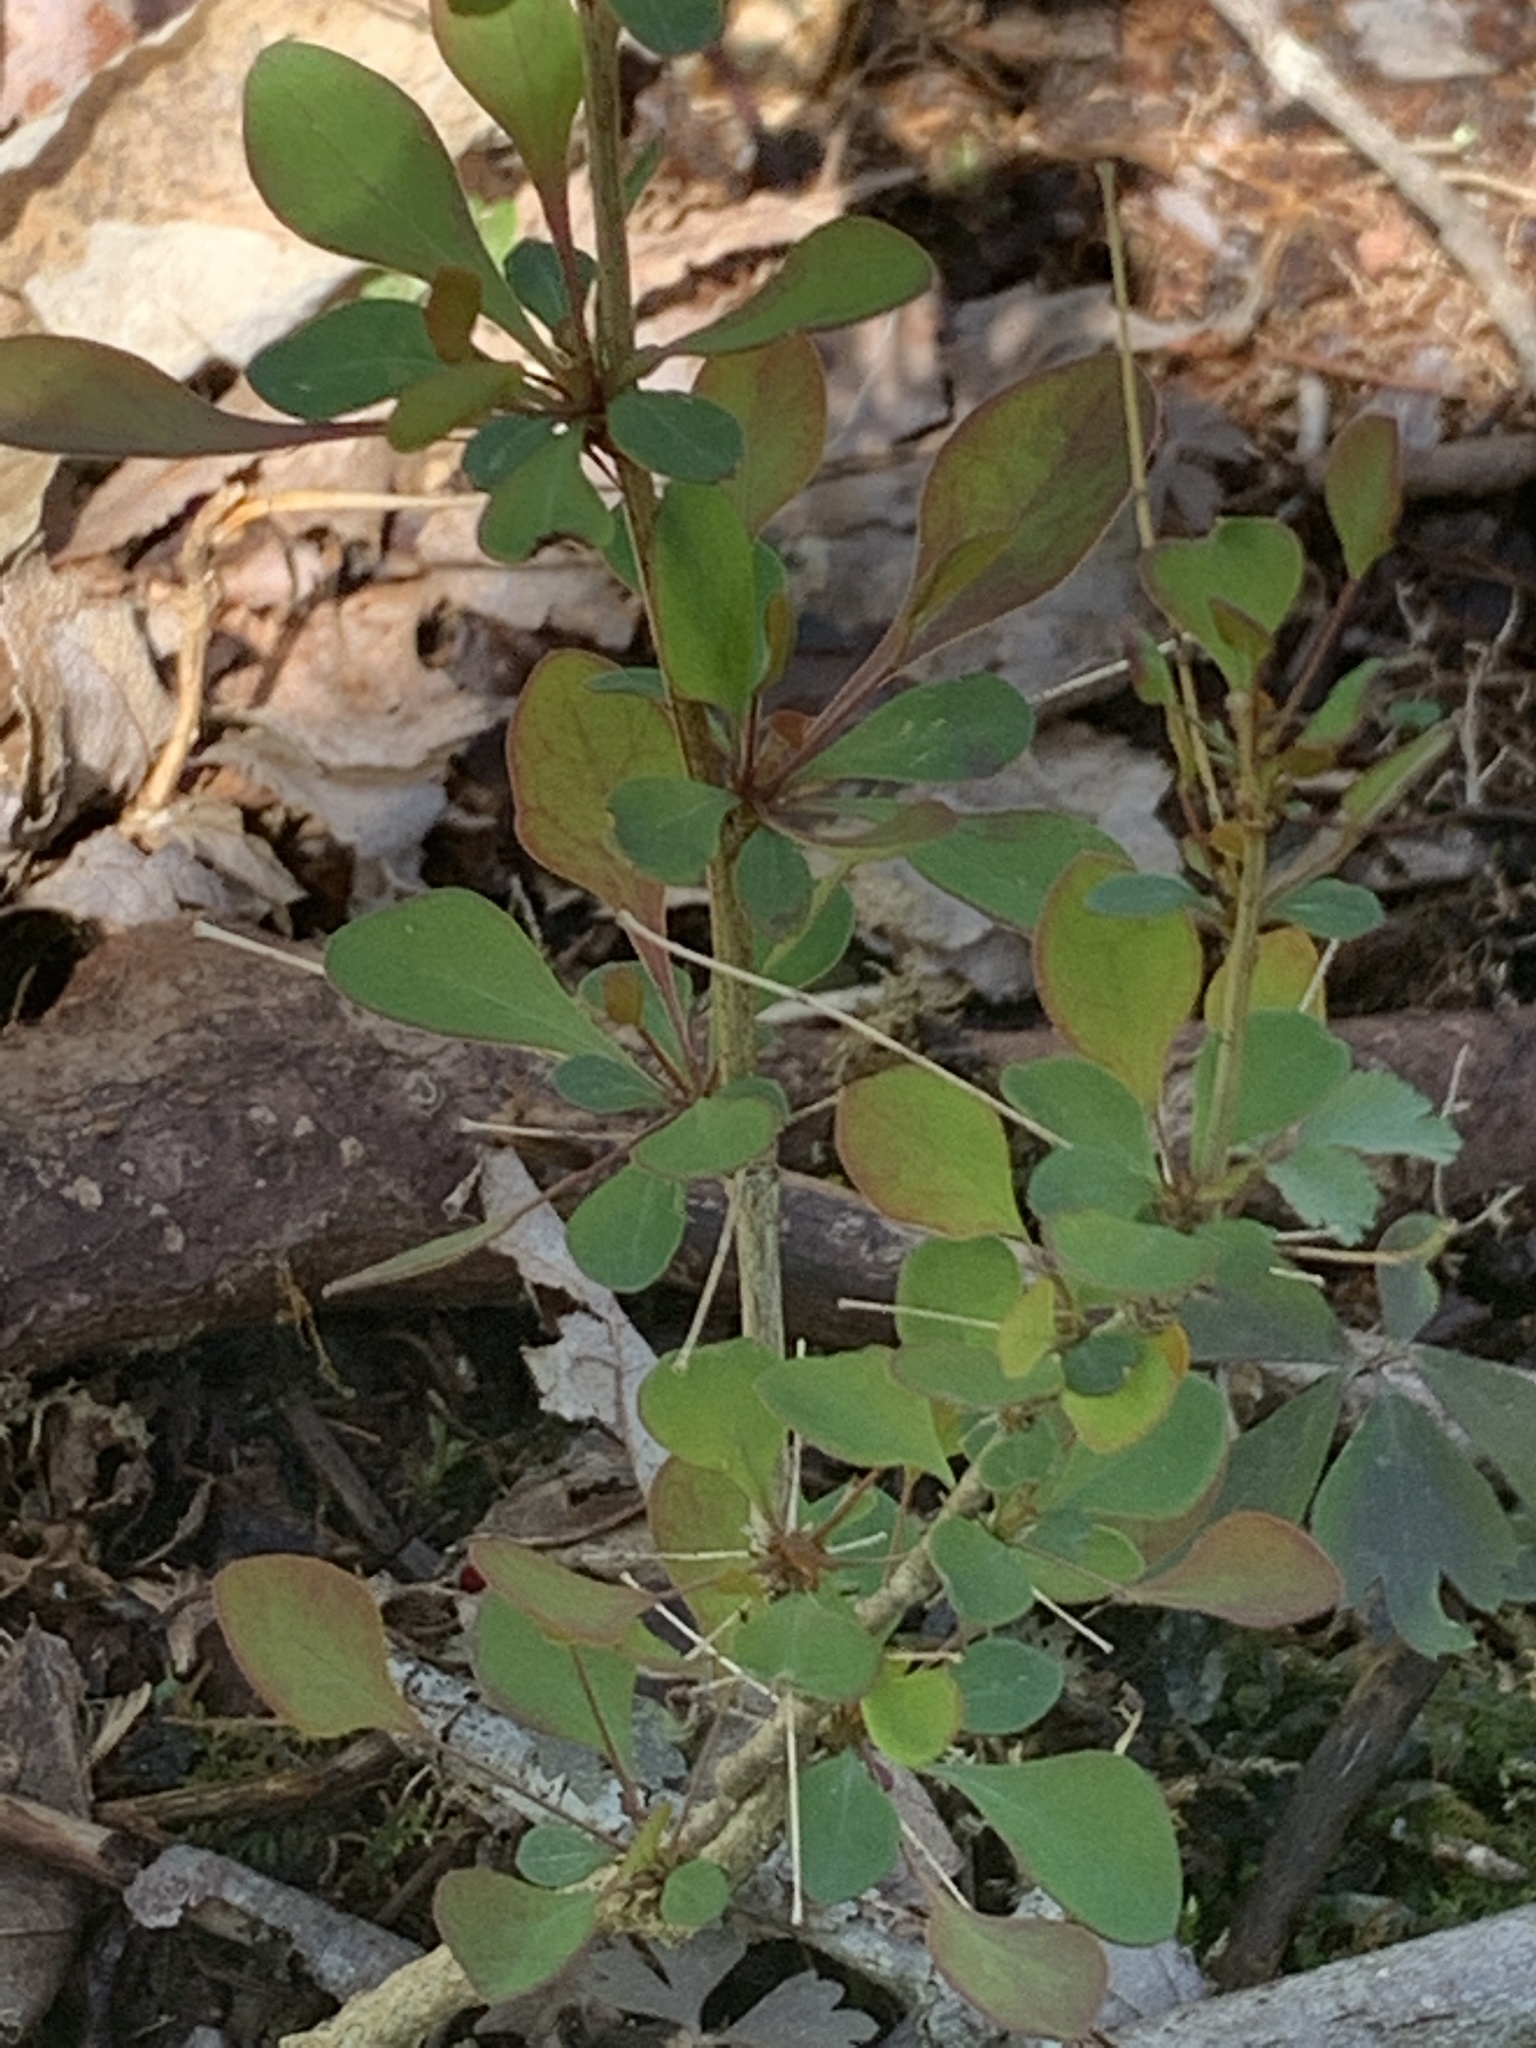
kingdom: Plantae
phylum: Tracheophyta
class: Magnoliopsida
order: Ranunculales
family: Berberidaceae
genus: Berberis
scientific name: Berberis thunbergii
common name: Japanese barberry
